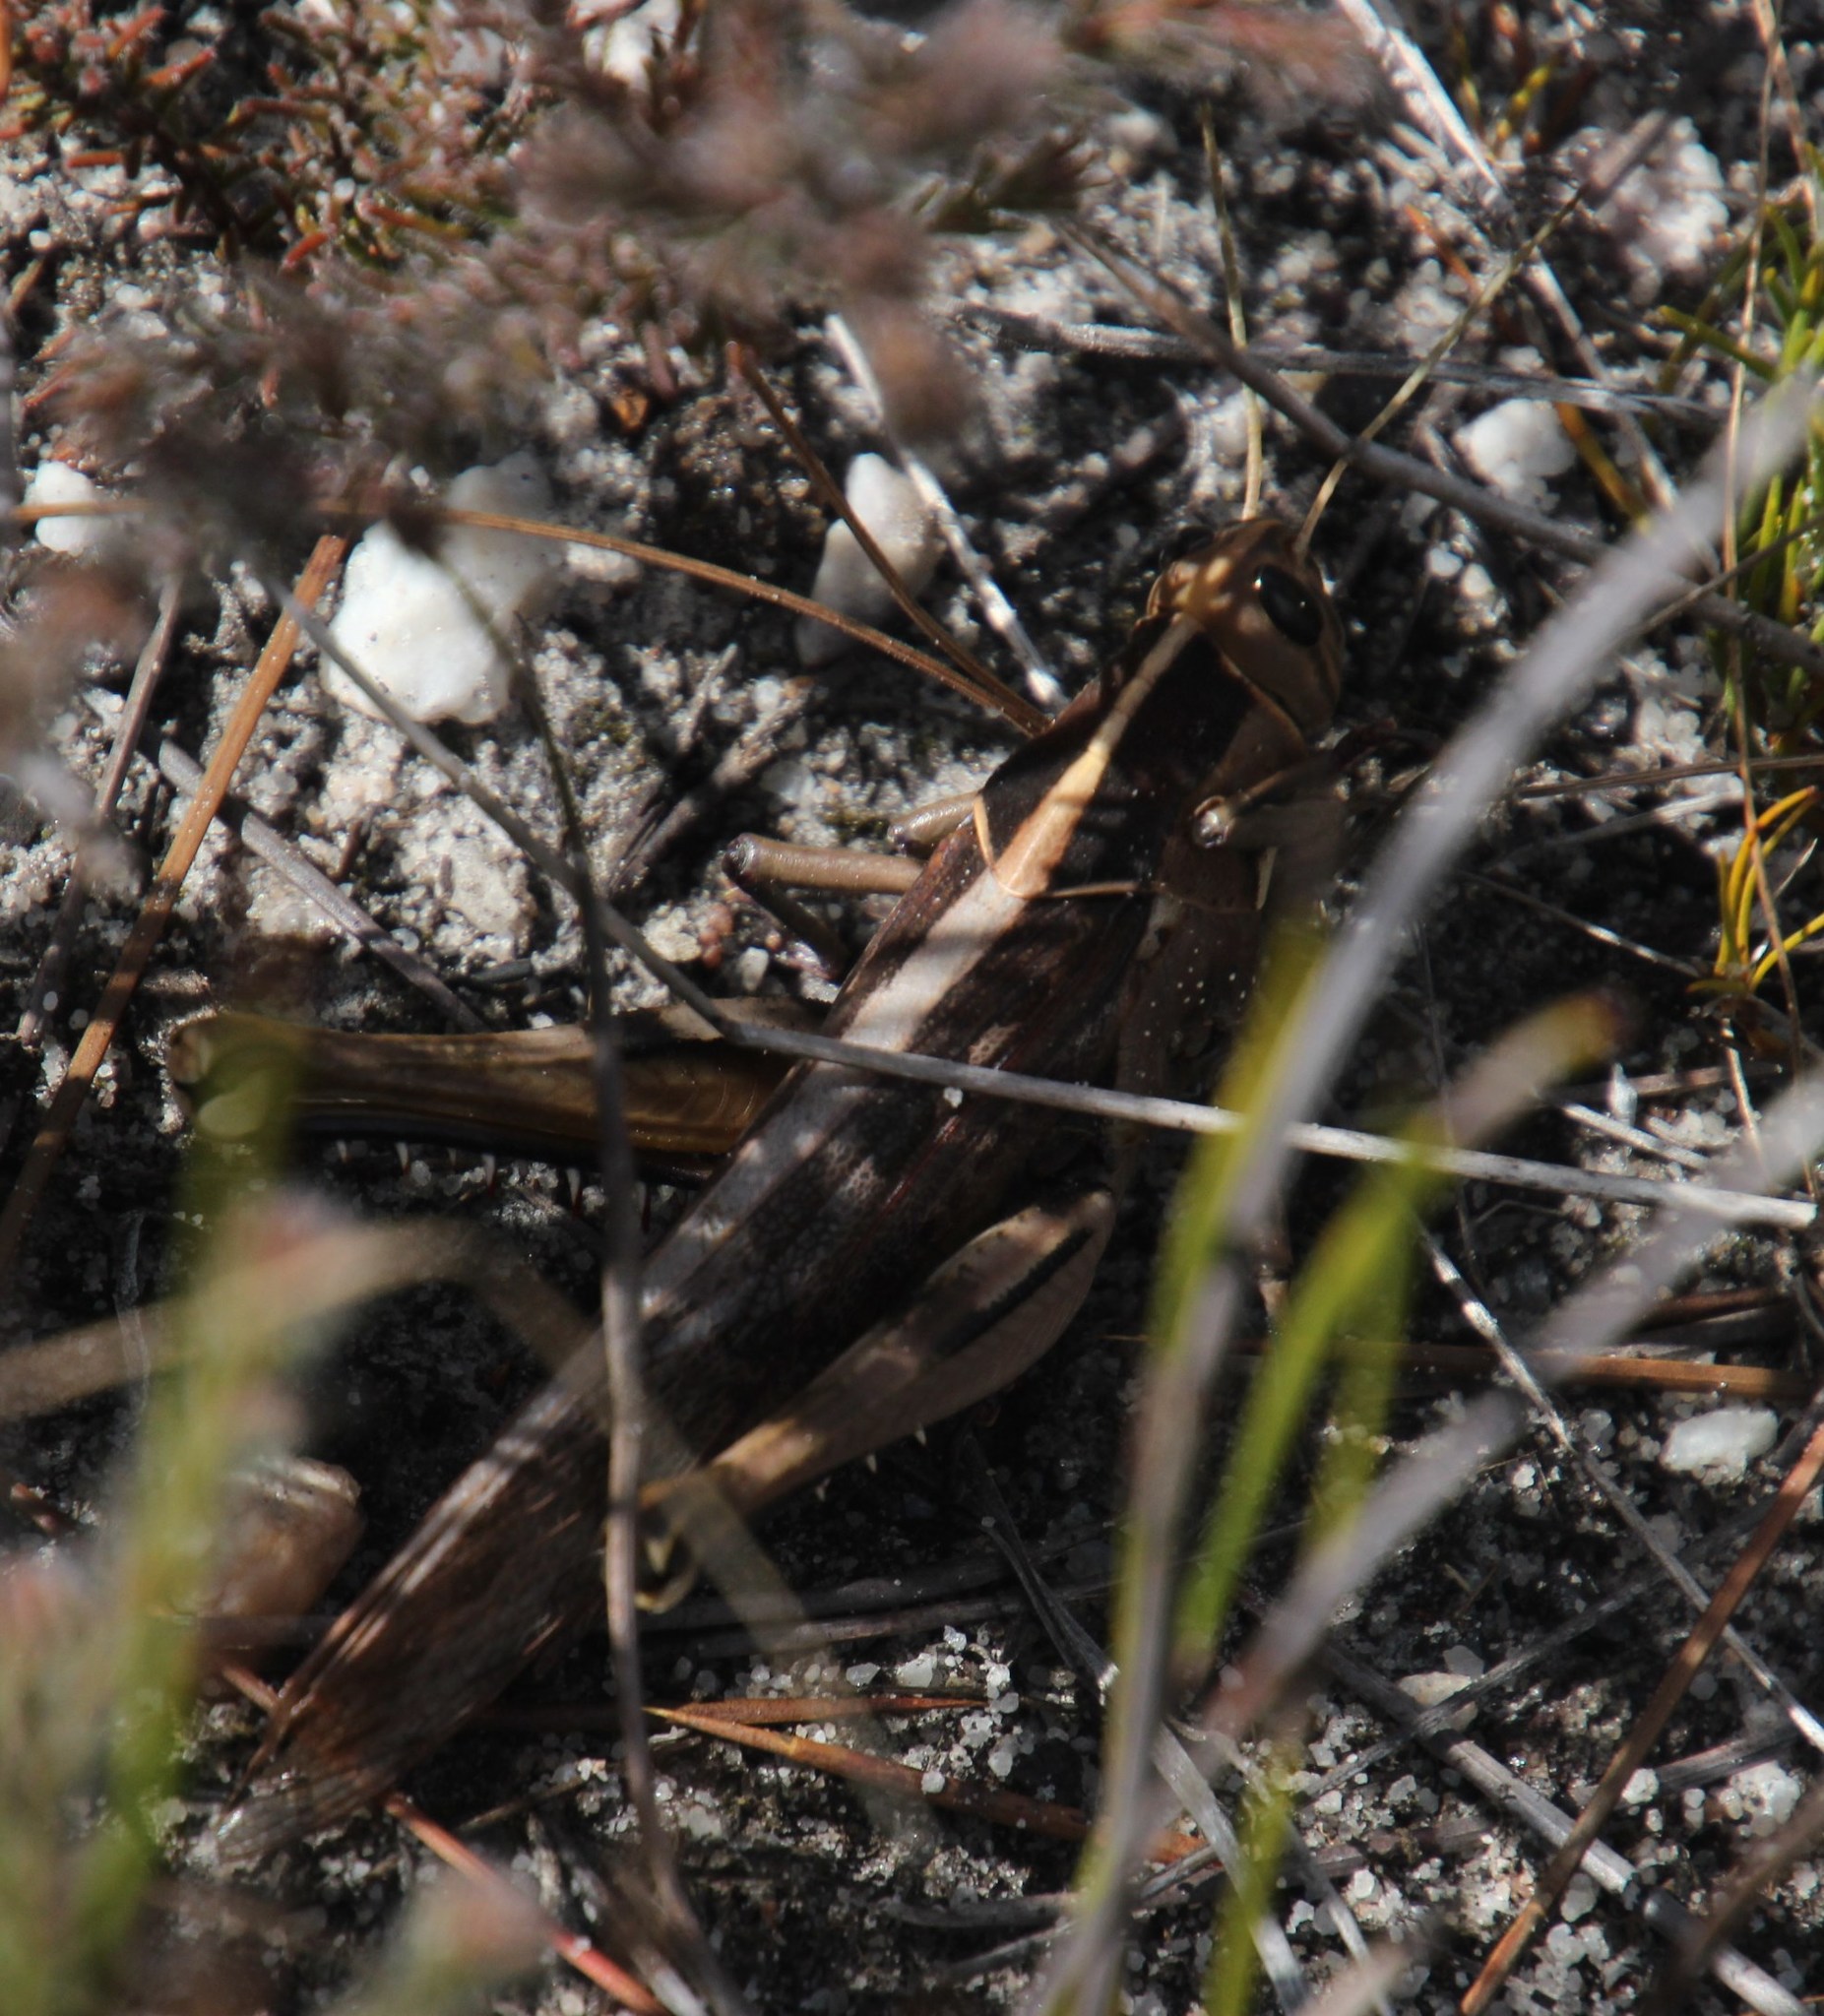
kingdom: Animalia
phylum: Arthropoda
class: Insecta
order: Orthoptera
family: Acrididae
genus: Acanthacris
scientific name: Acanthacris ruficornis
